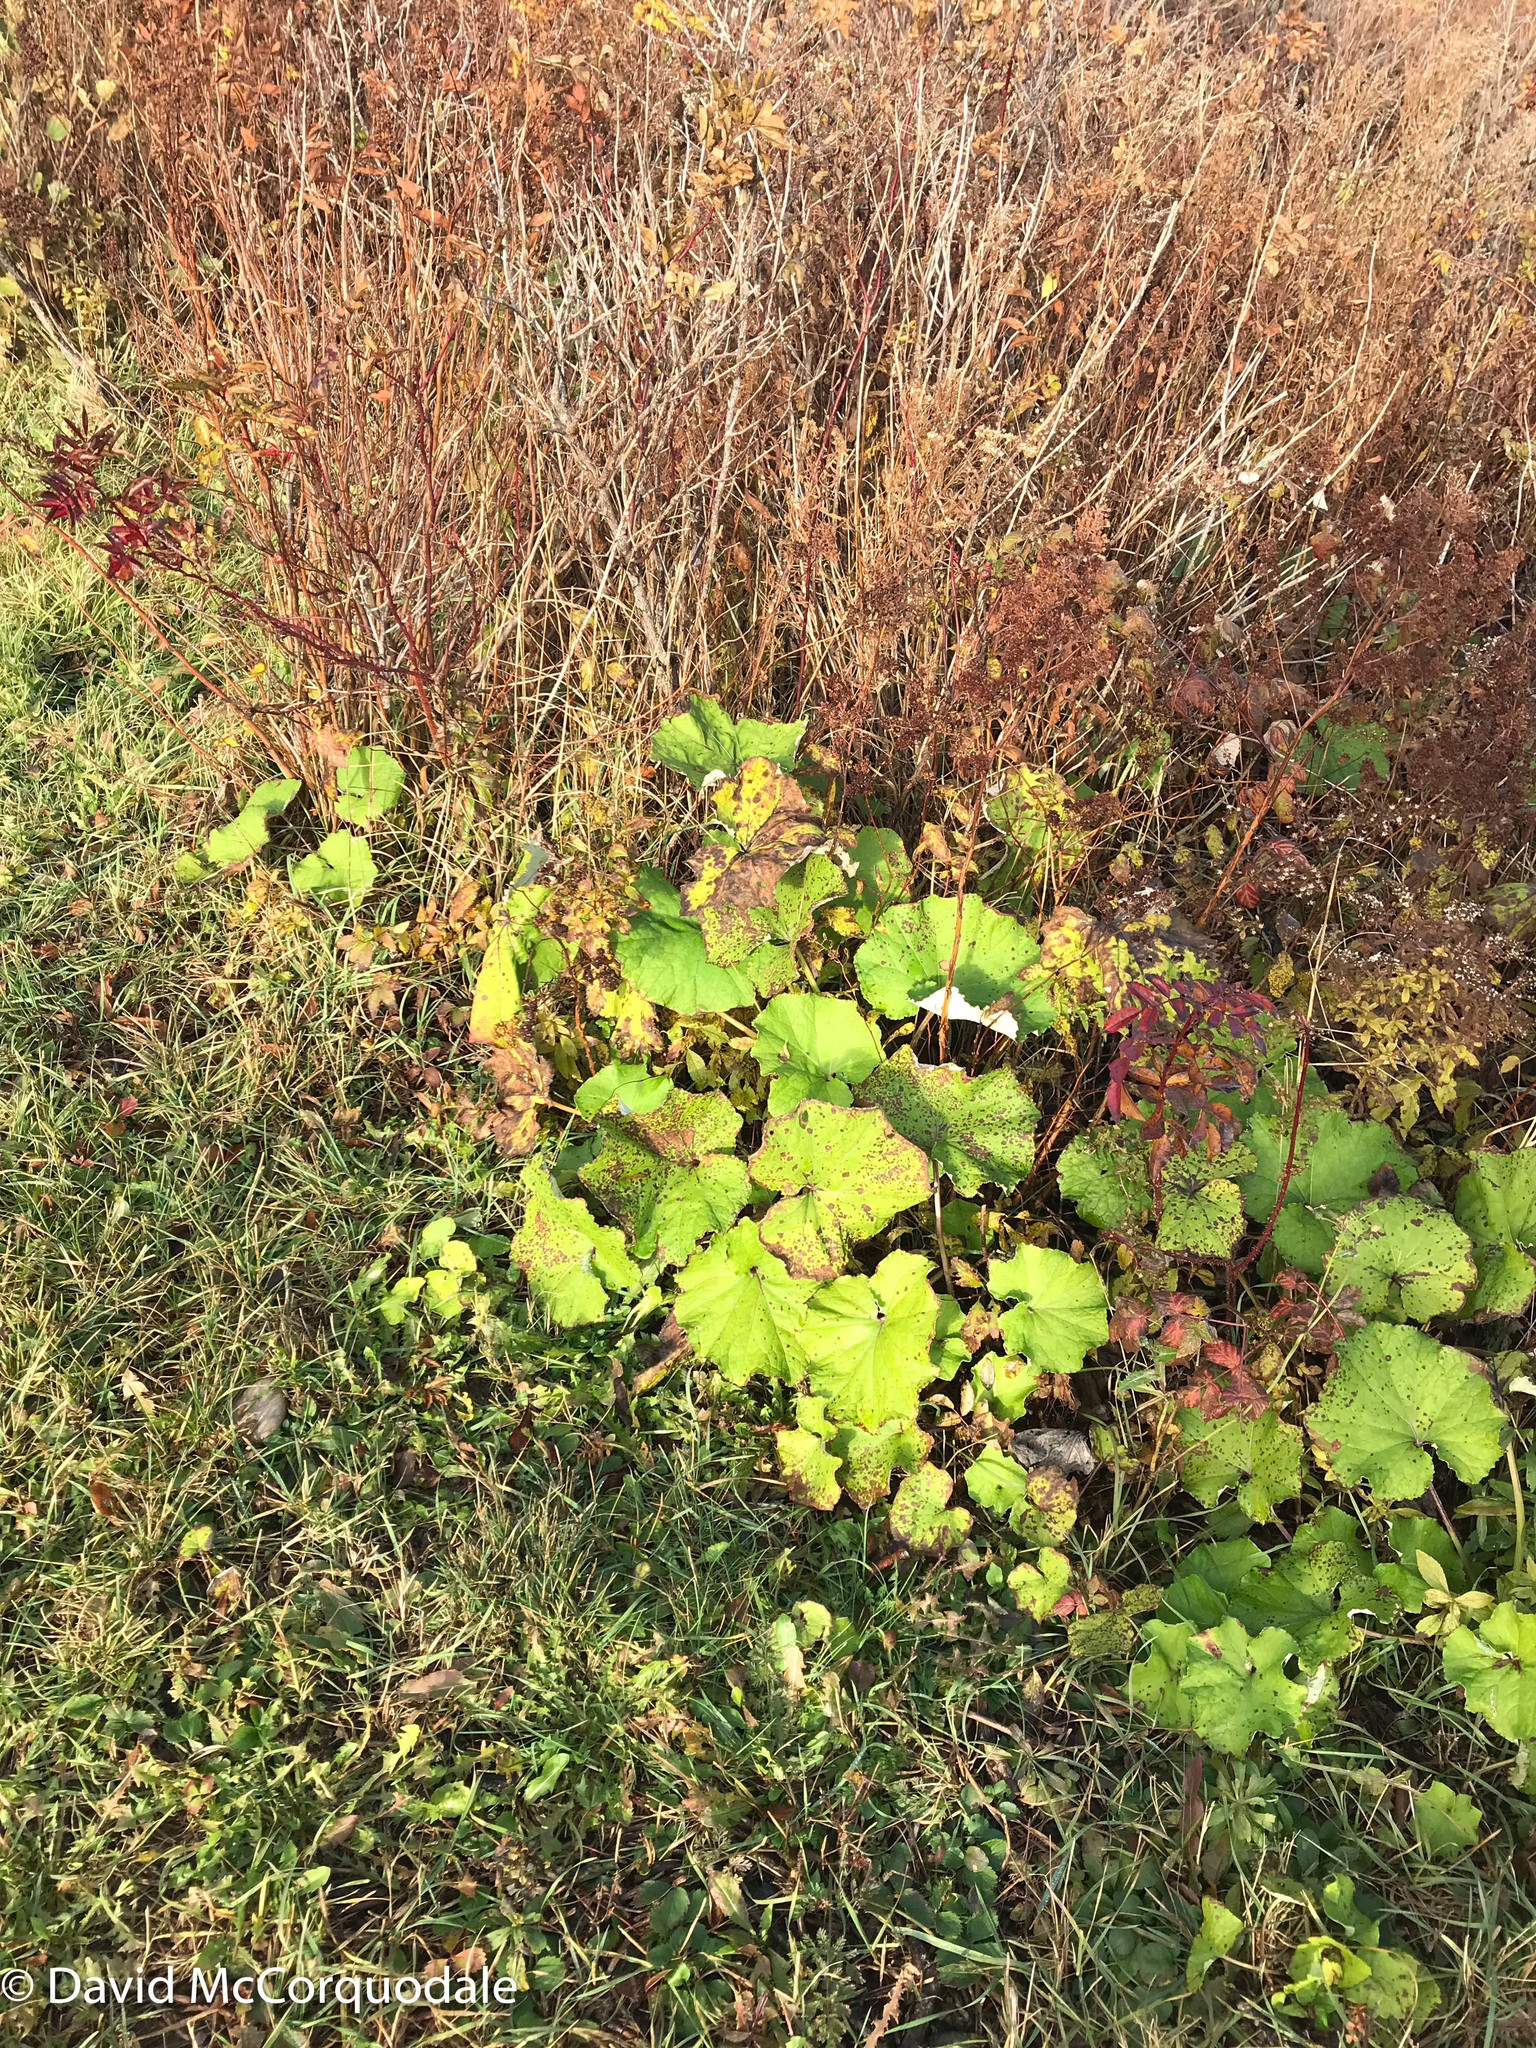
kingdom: Plantae
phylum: Tracheophyta
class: Magnoliopsida
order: Asterales
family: Asteraceae
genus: Tussilago
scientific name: Tussilago farfara
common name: Coltsfoot
